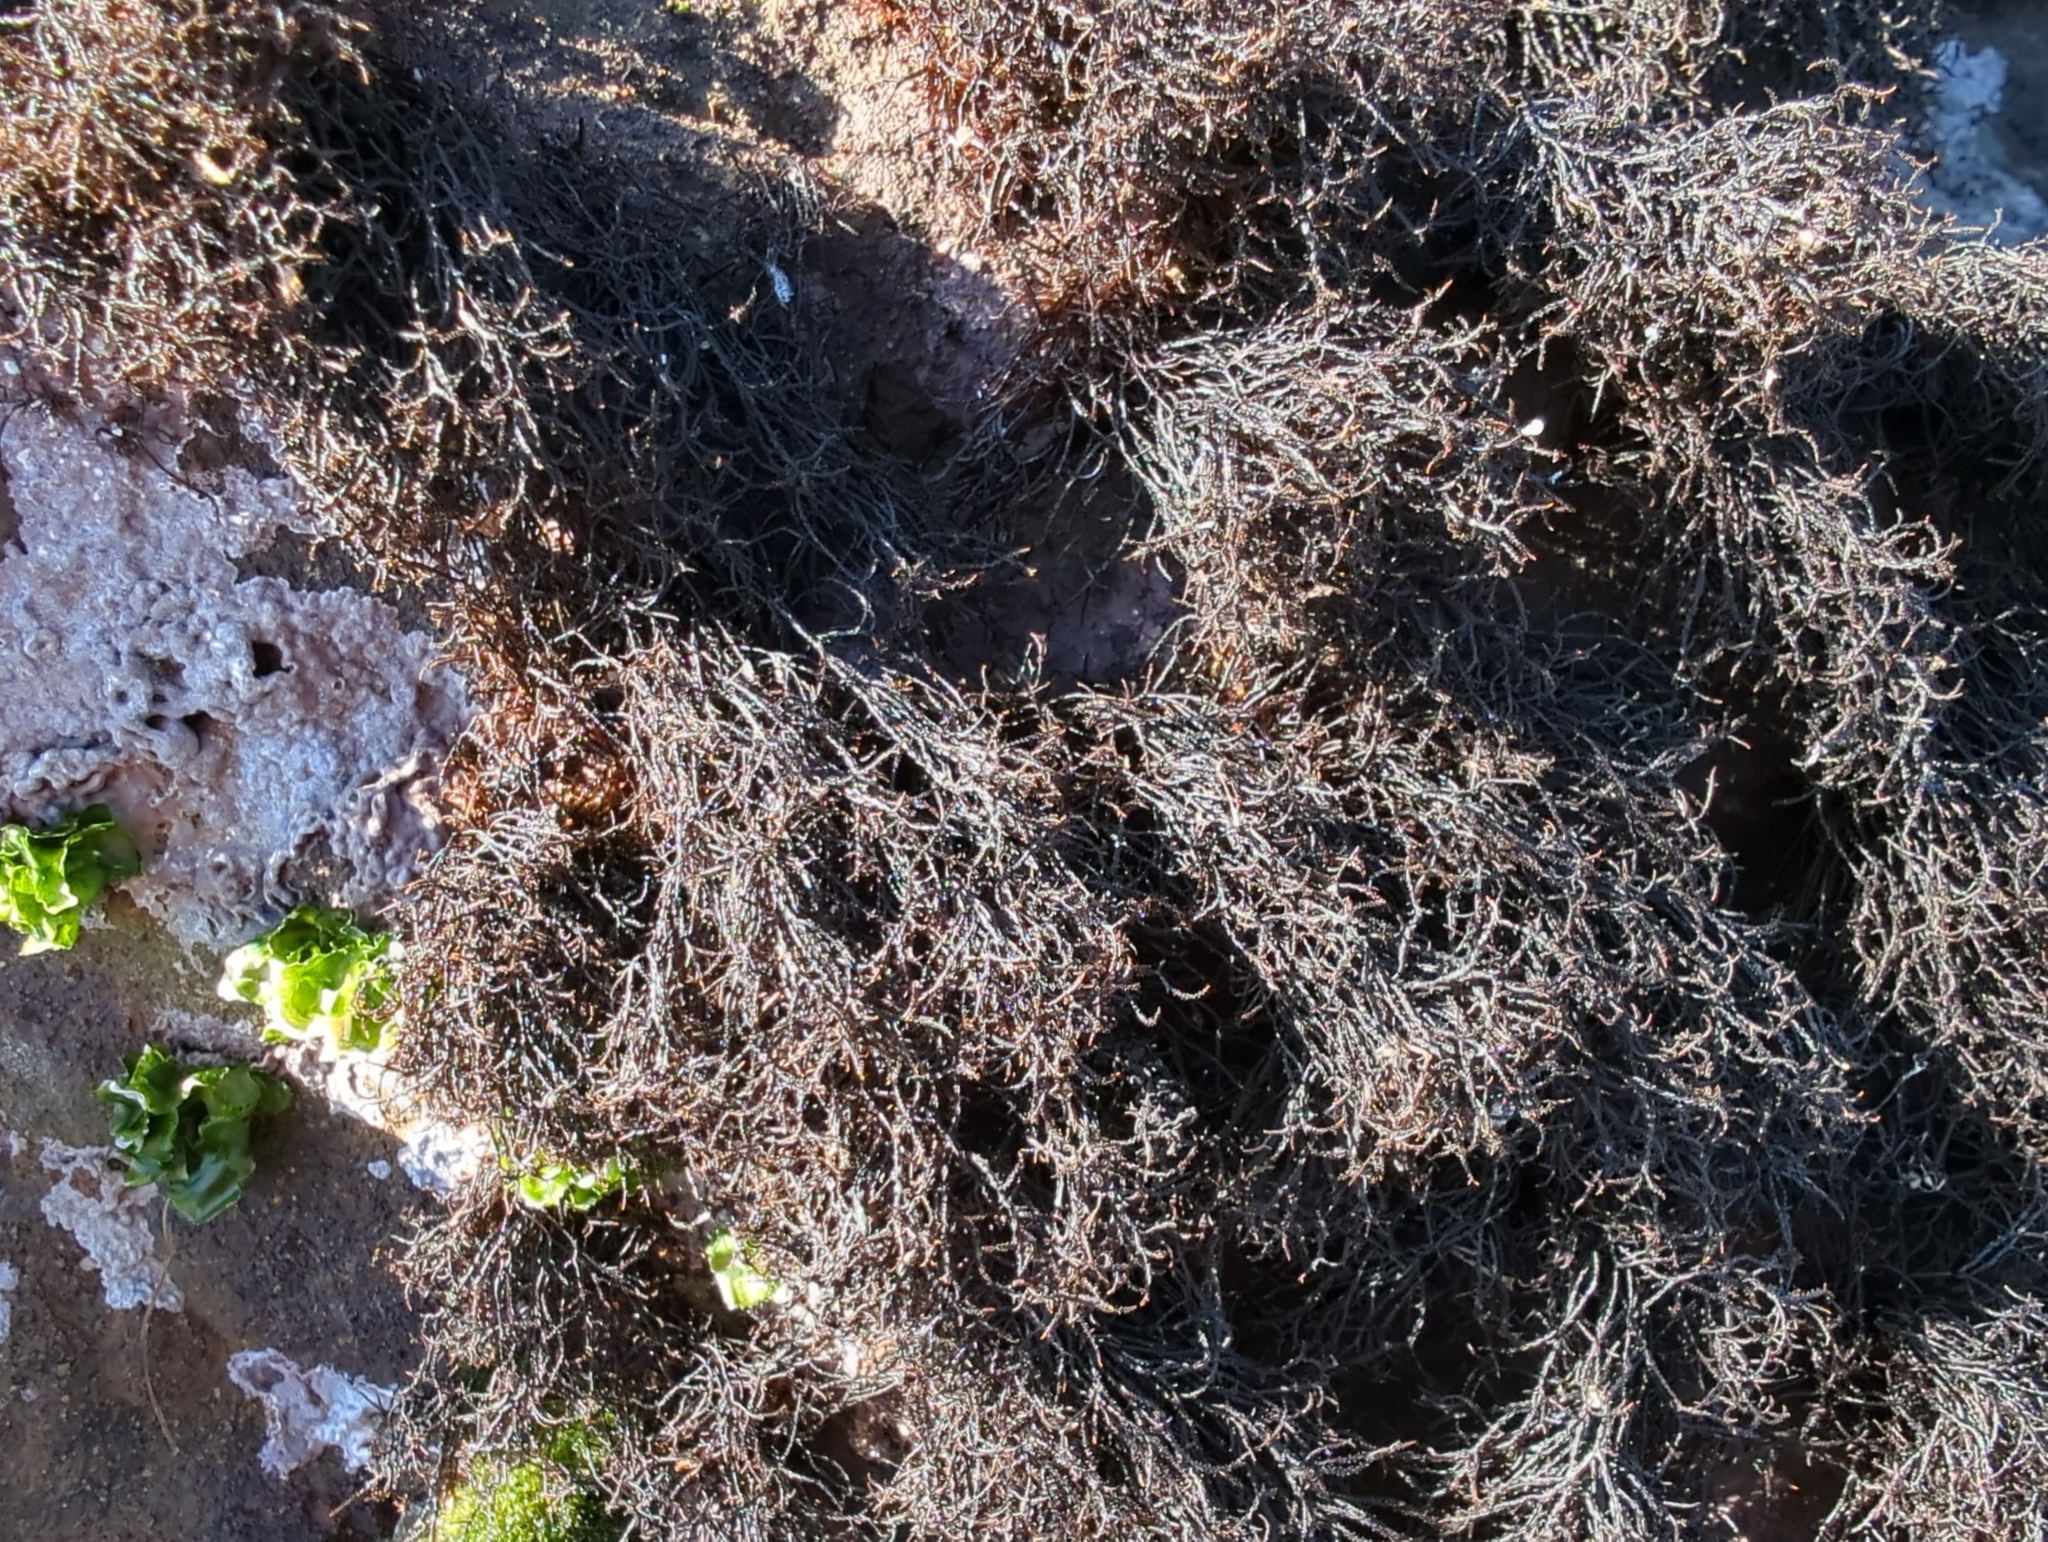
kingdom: Plantae
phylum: Rhodophyta
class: Florideophyceae
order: Gigartinales
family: Endocladiaceae
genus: Endocladia
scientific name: Endocladia muricata
